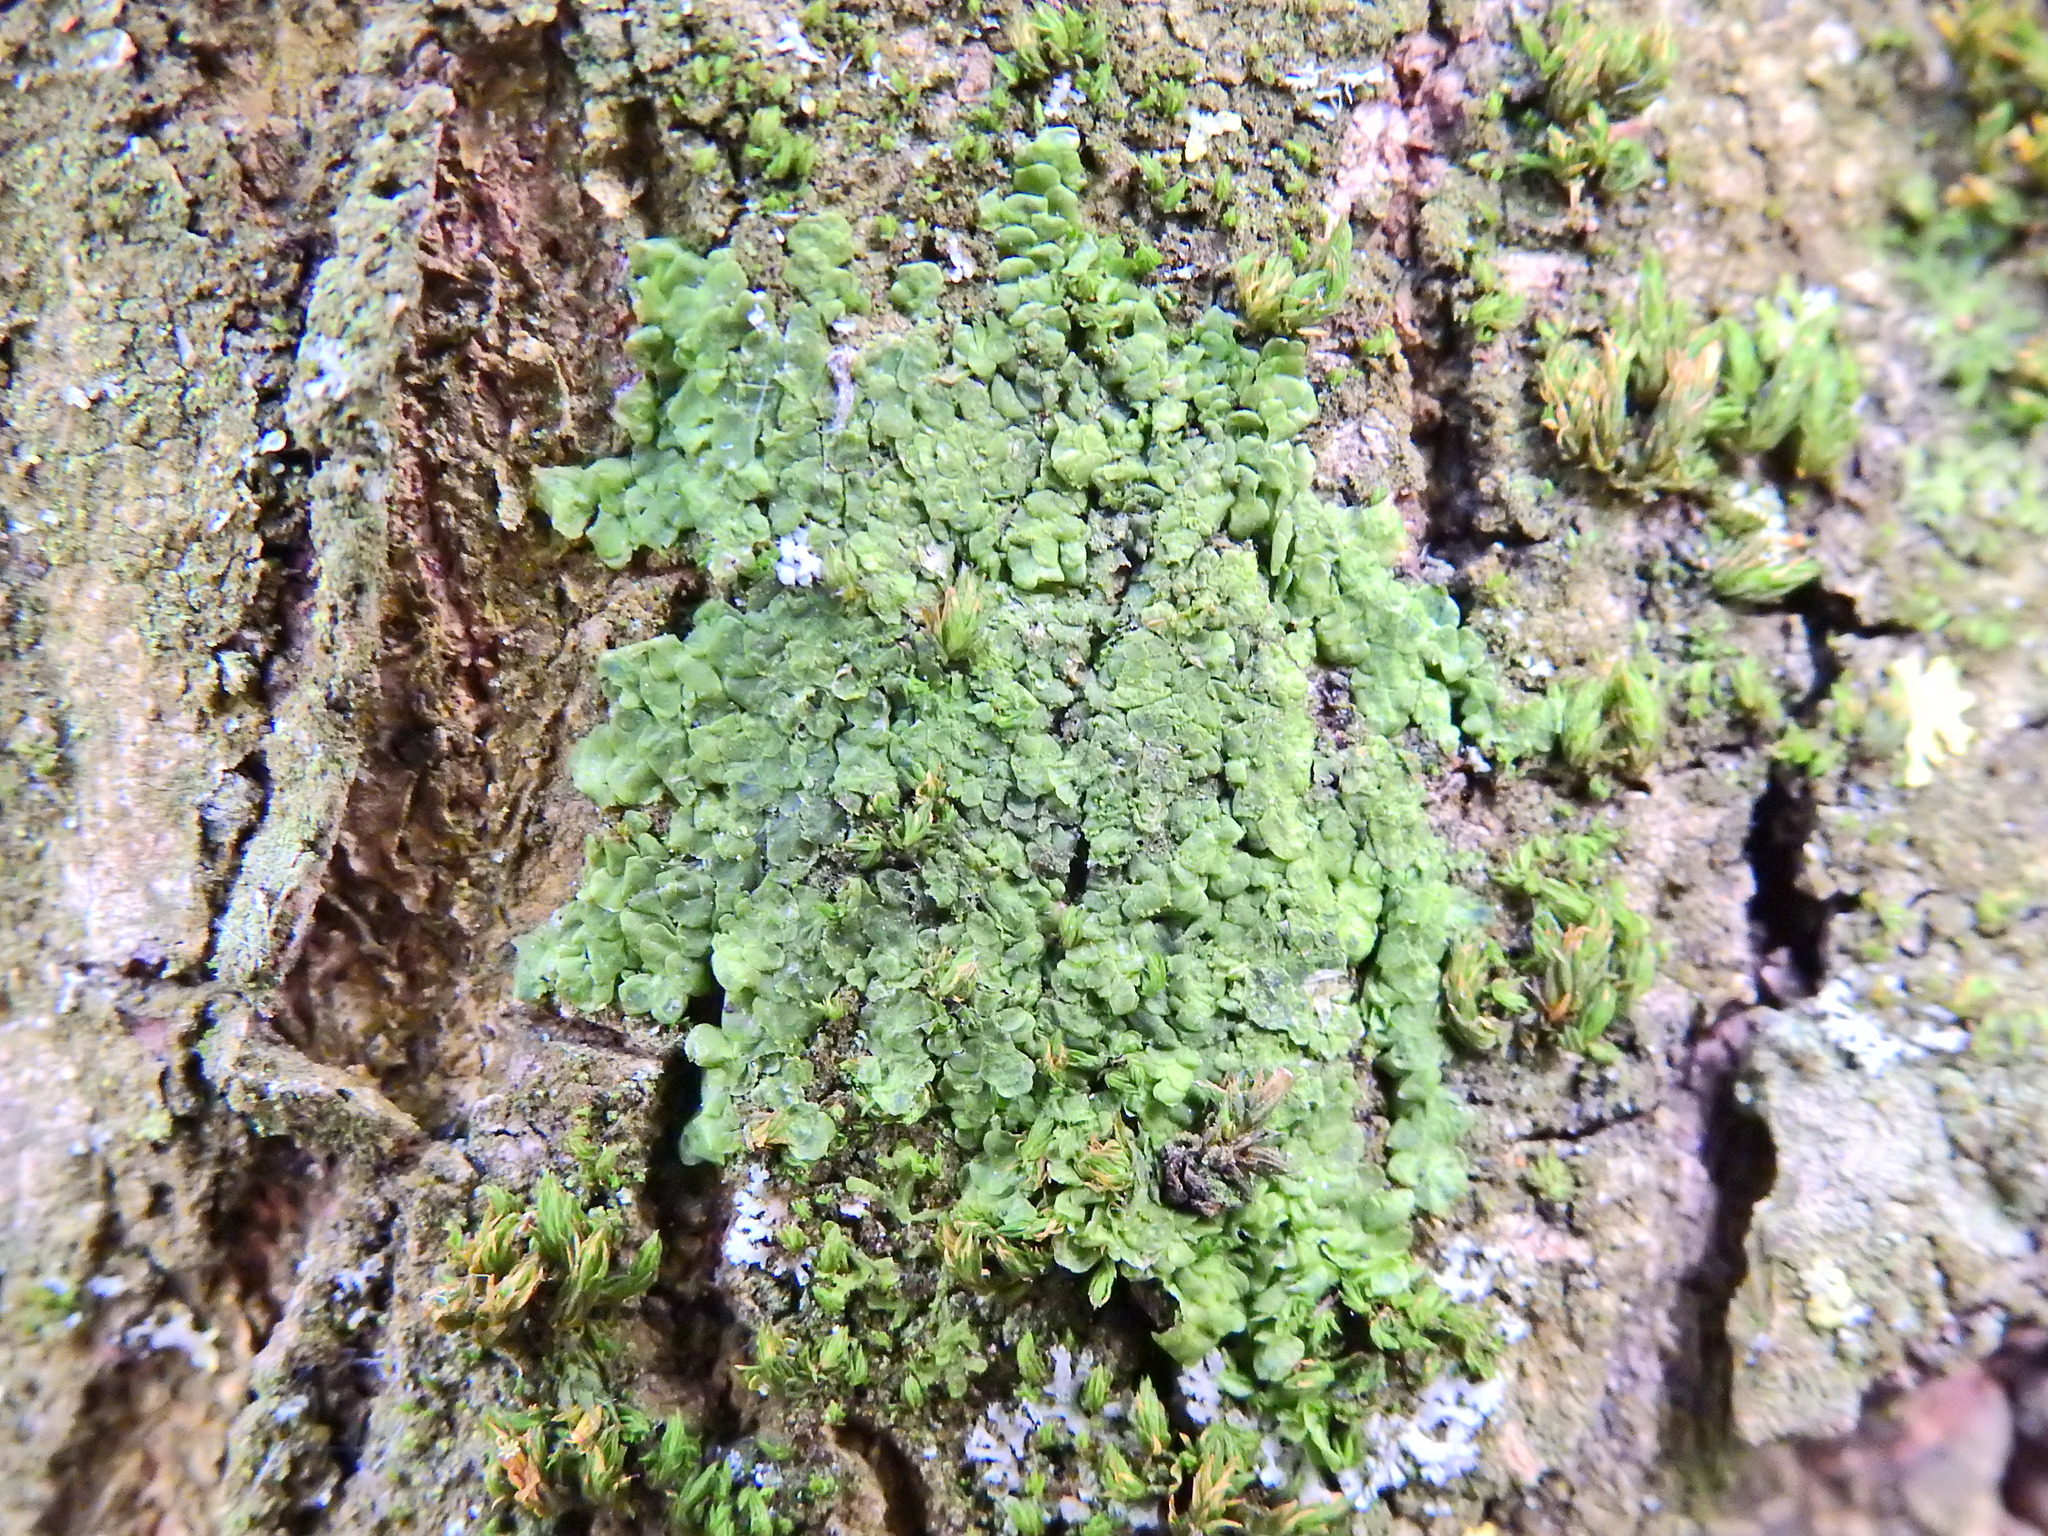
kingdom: Plantae
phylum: Marchantiophyta
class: Jungermanniopsida
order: Porellales
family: Radulaceae
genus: Radula
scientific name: Radula complanata
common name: Flat-leaved scalewort
